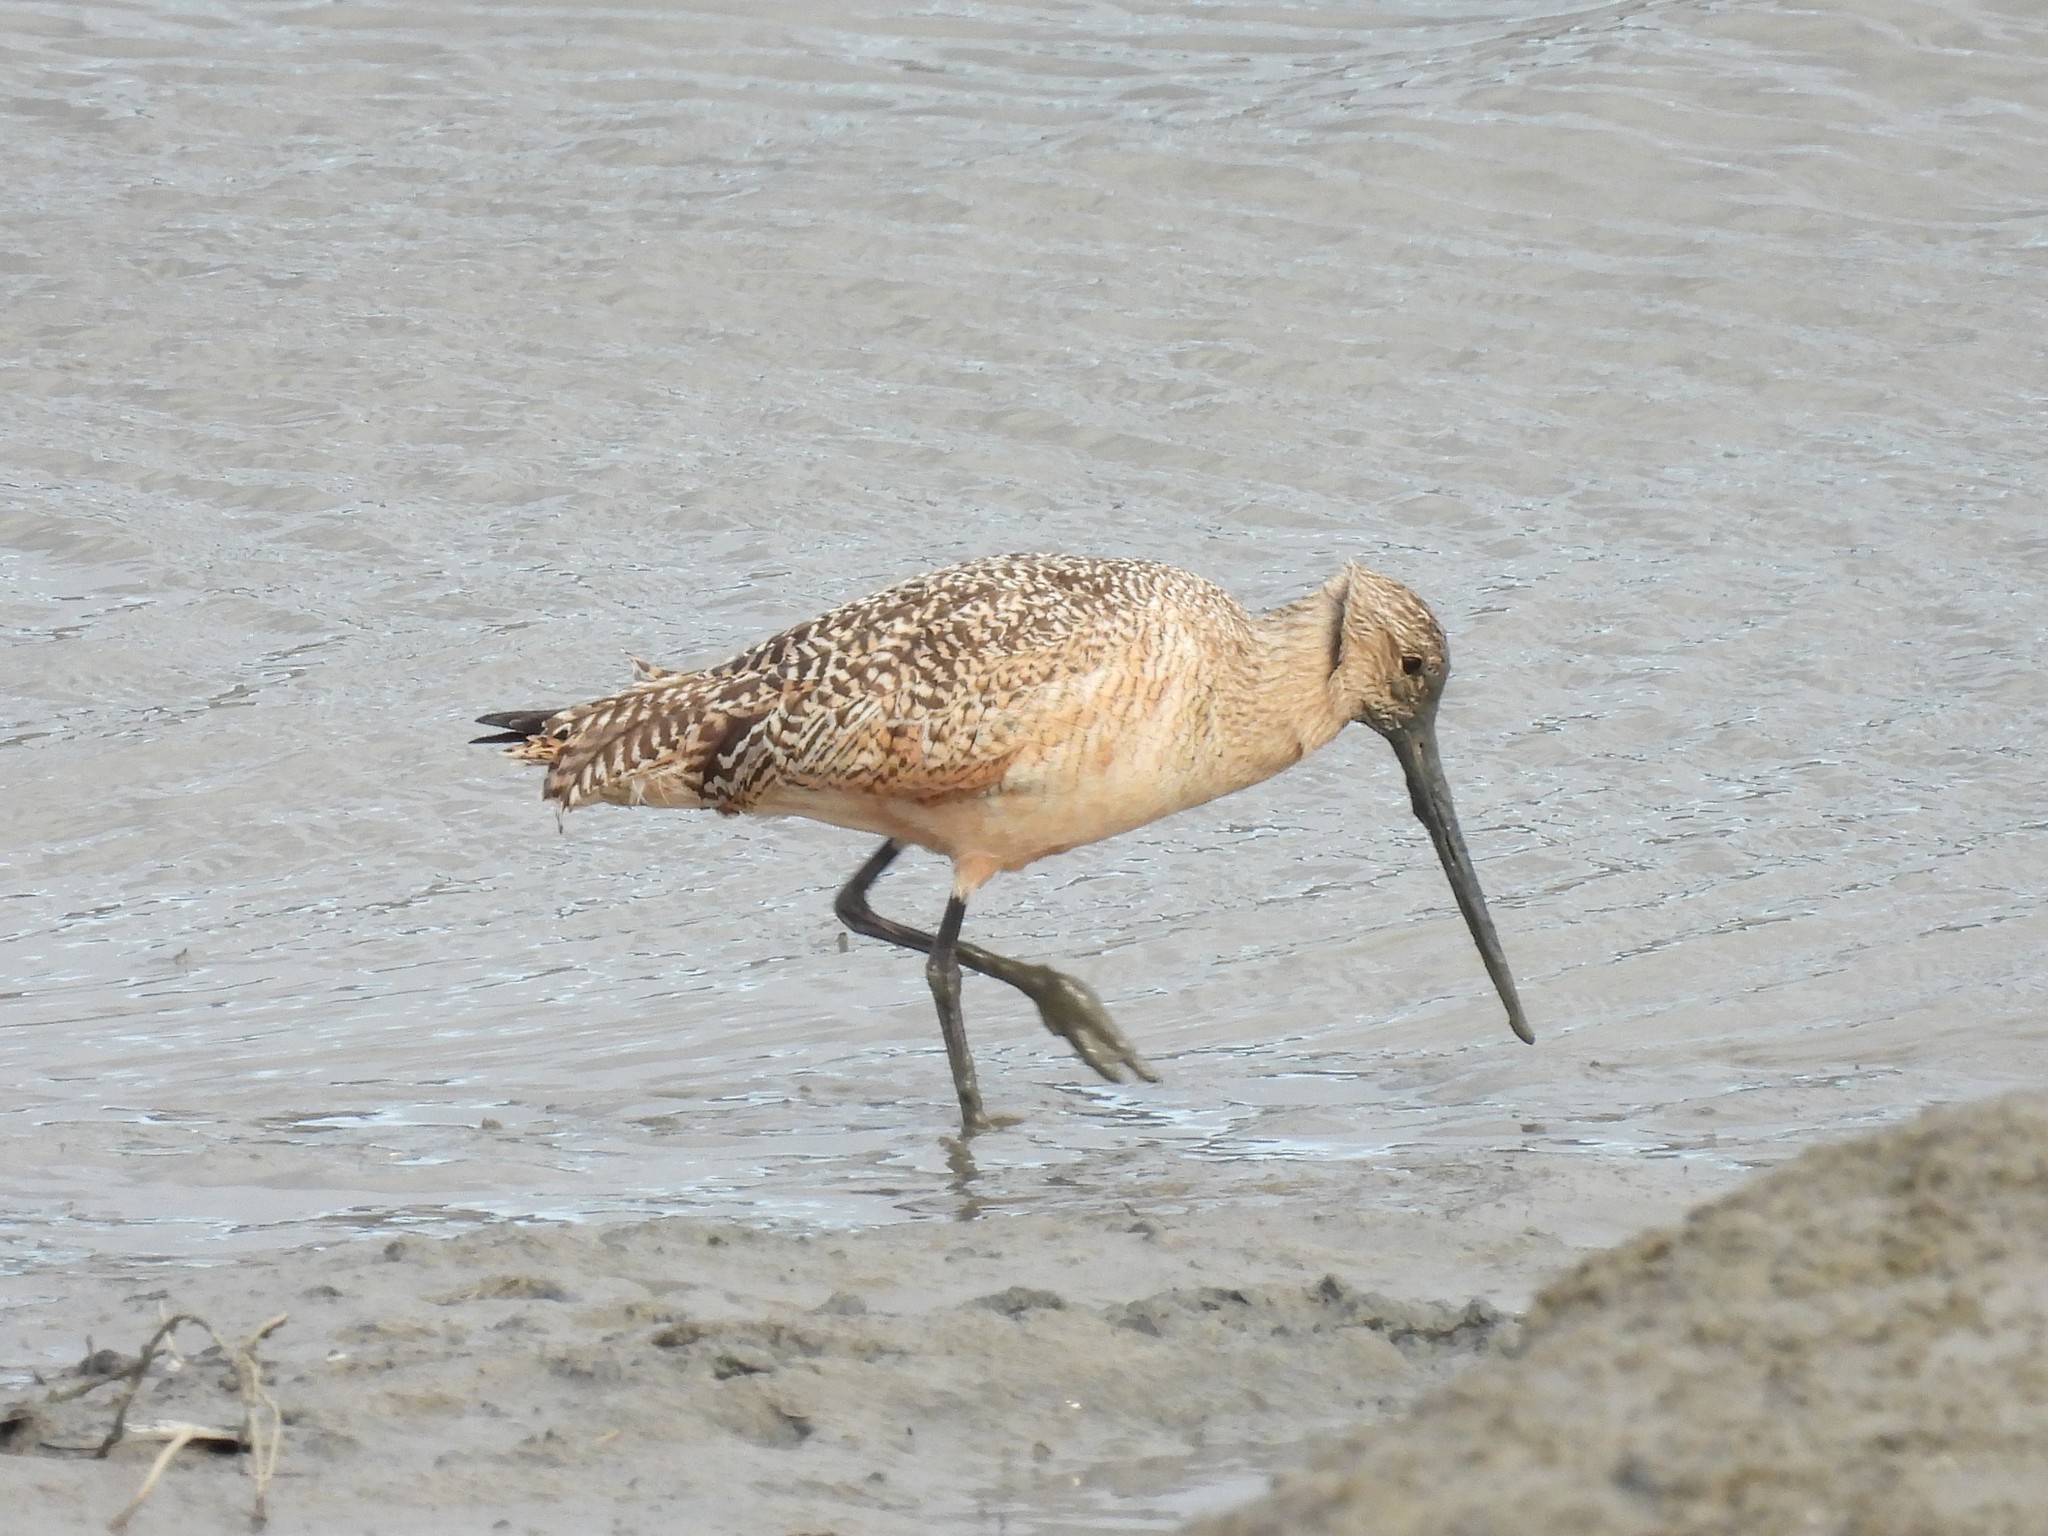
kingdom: Animalia
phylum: Chordata
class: Aves
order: Charadriiformes
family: Scolopacidae
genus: Limosa
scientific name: Limosa fedoa
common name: Marbled godwit
